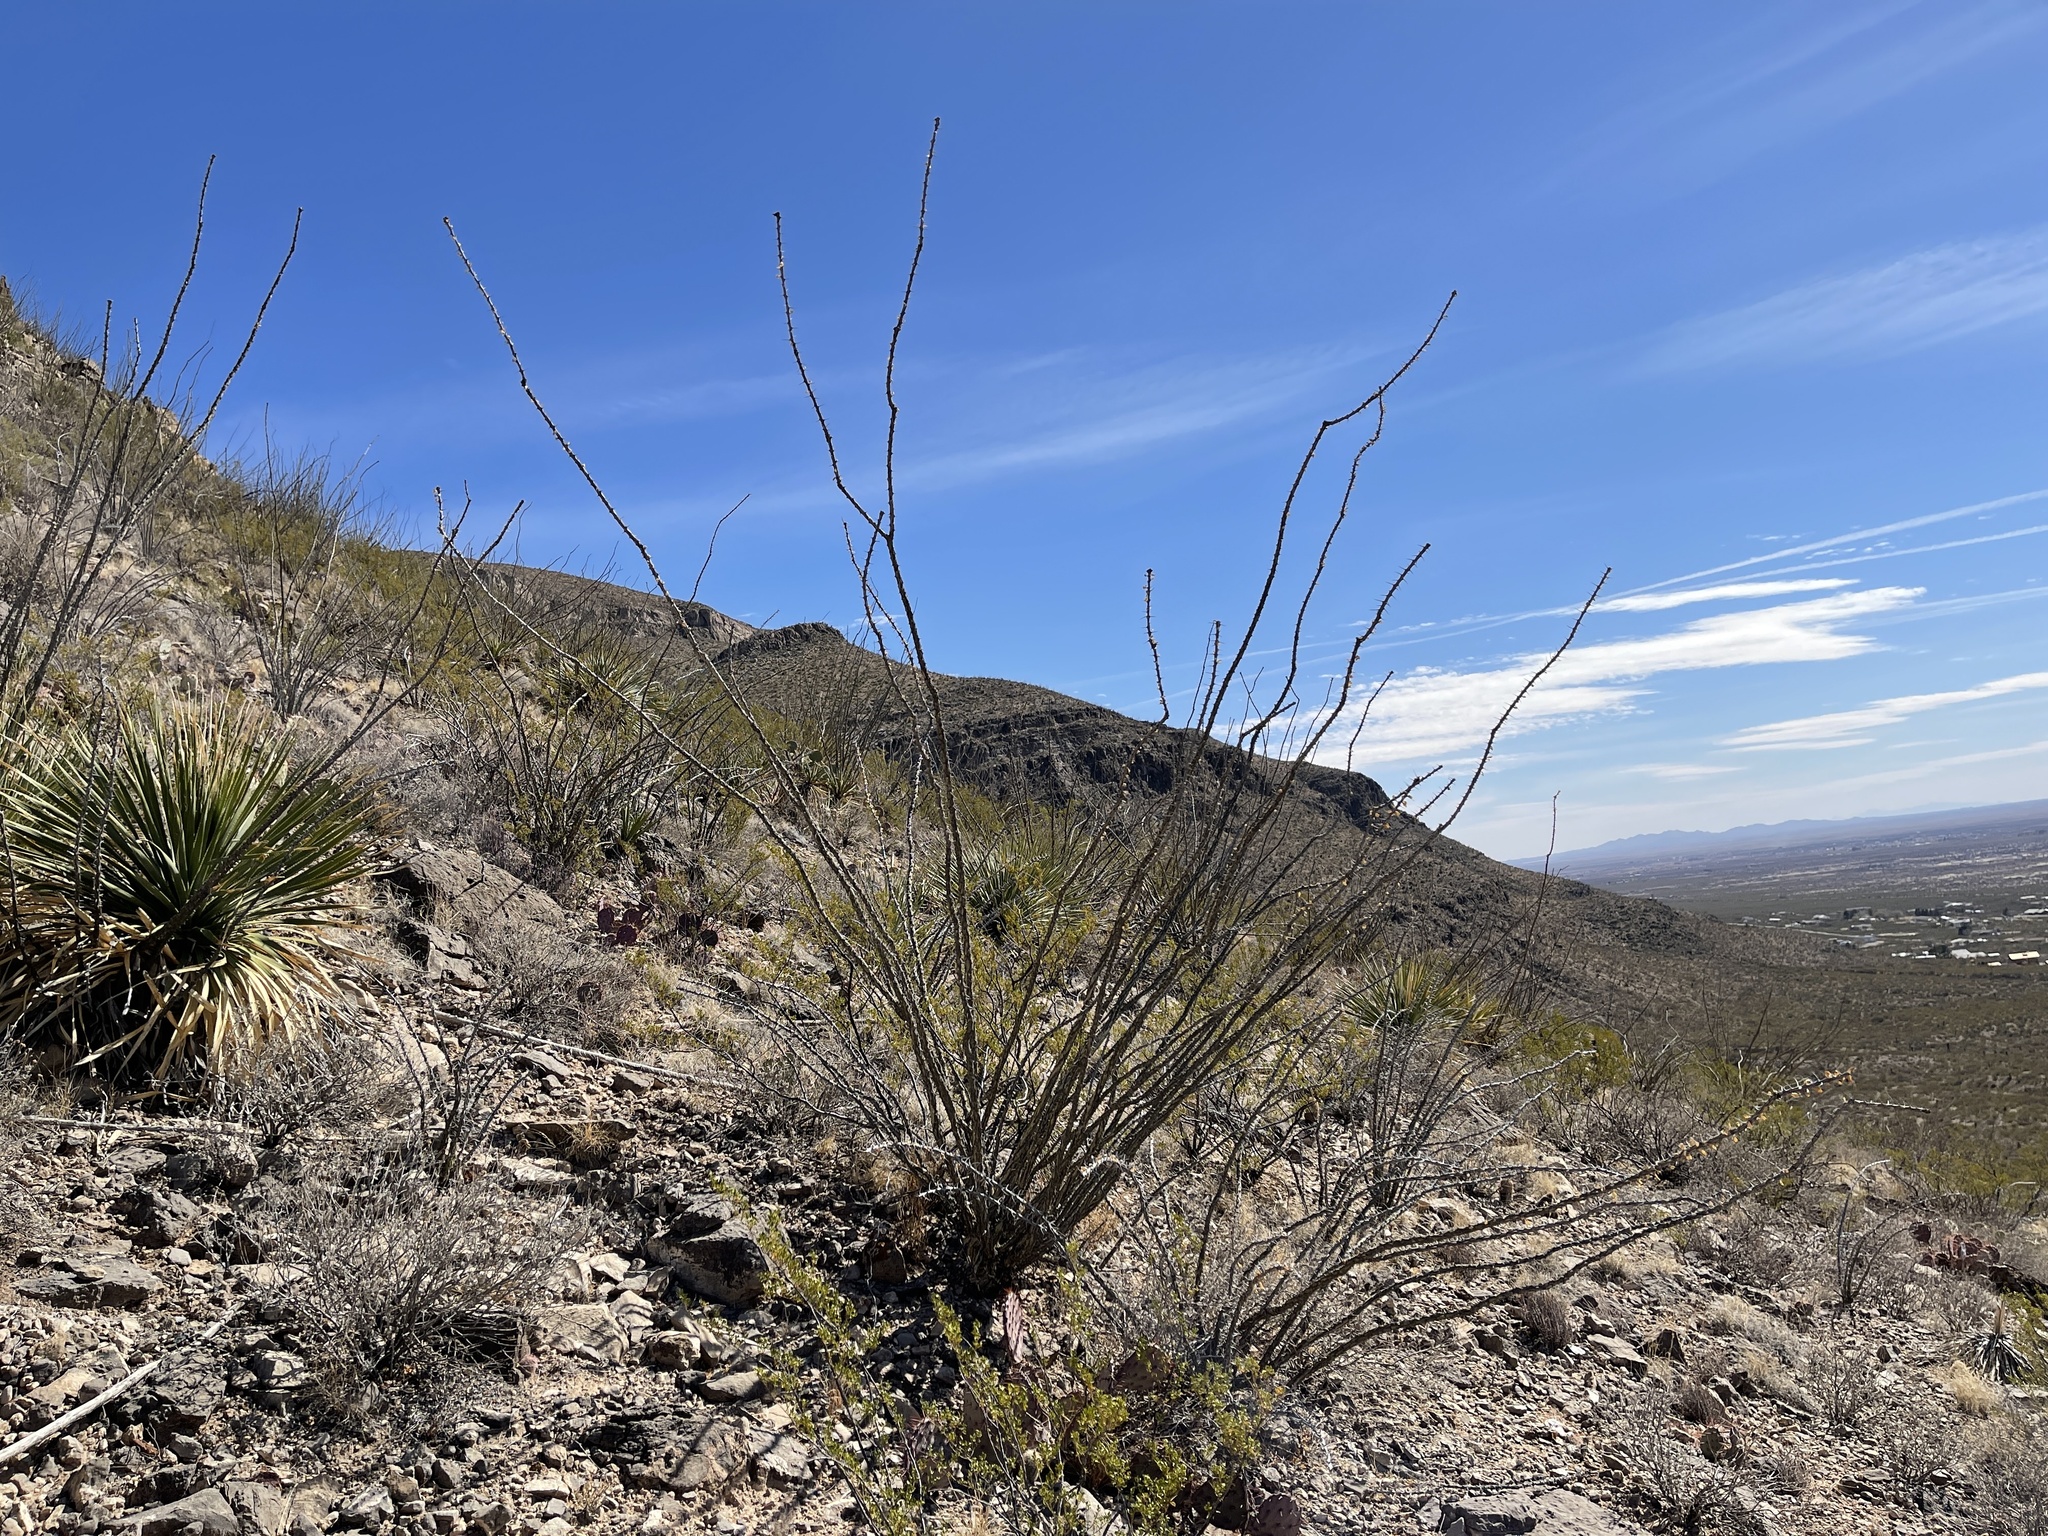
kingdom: Plantae
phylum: Tracheophyta
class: Magnoliopsida
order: Ericales
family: Fouquieriaceae
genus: Fouquieria
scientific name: Fouquieria splendens
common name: Vine-cactus
